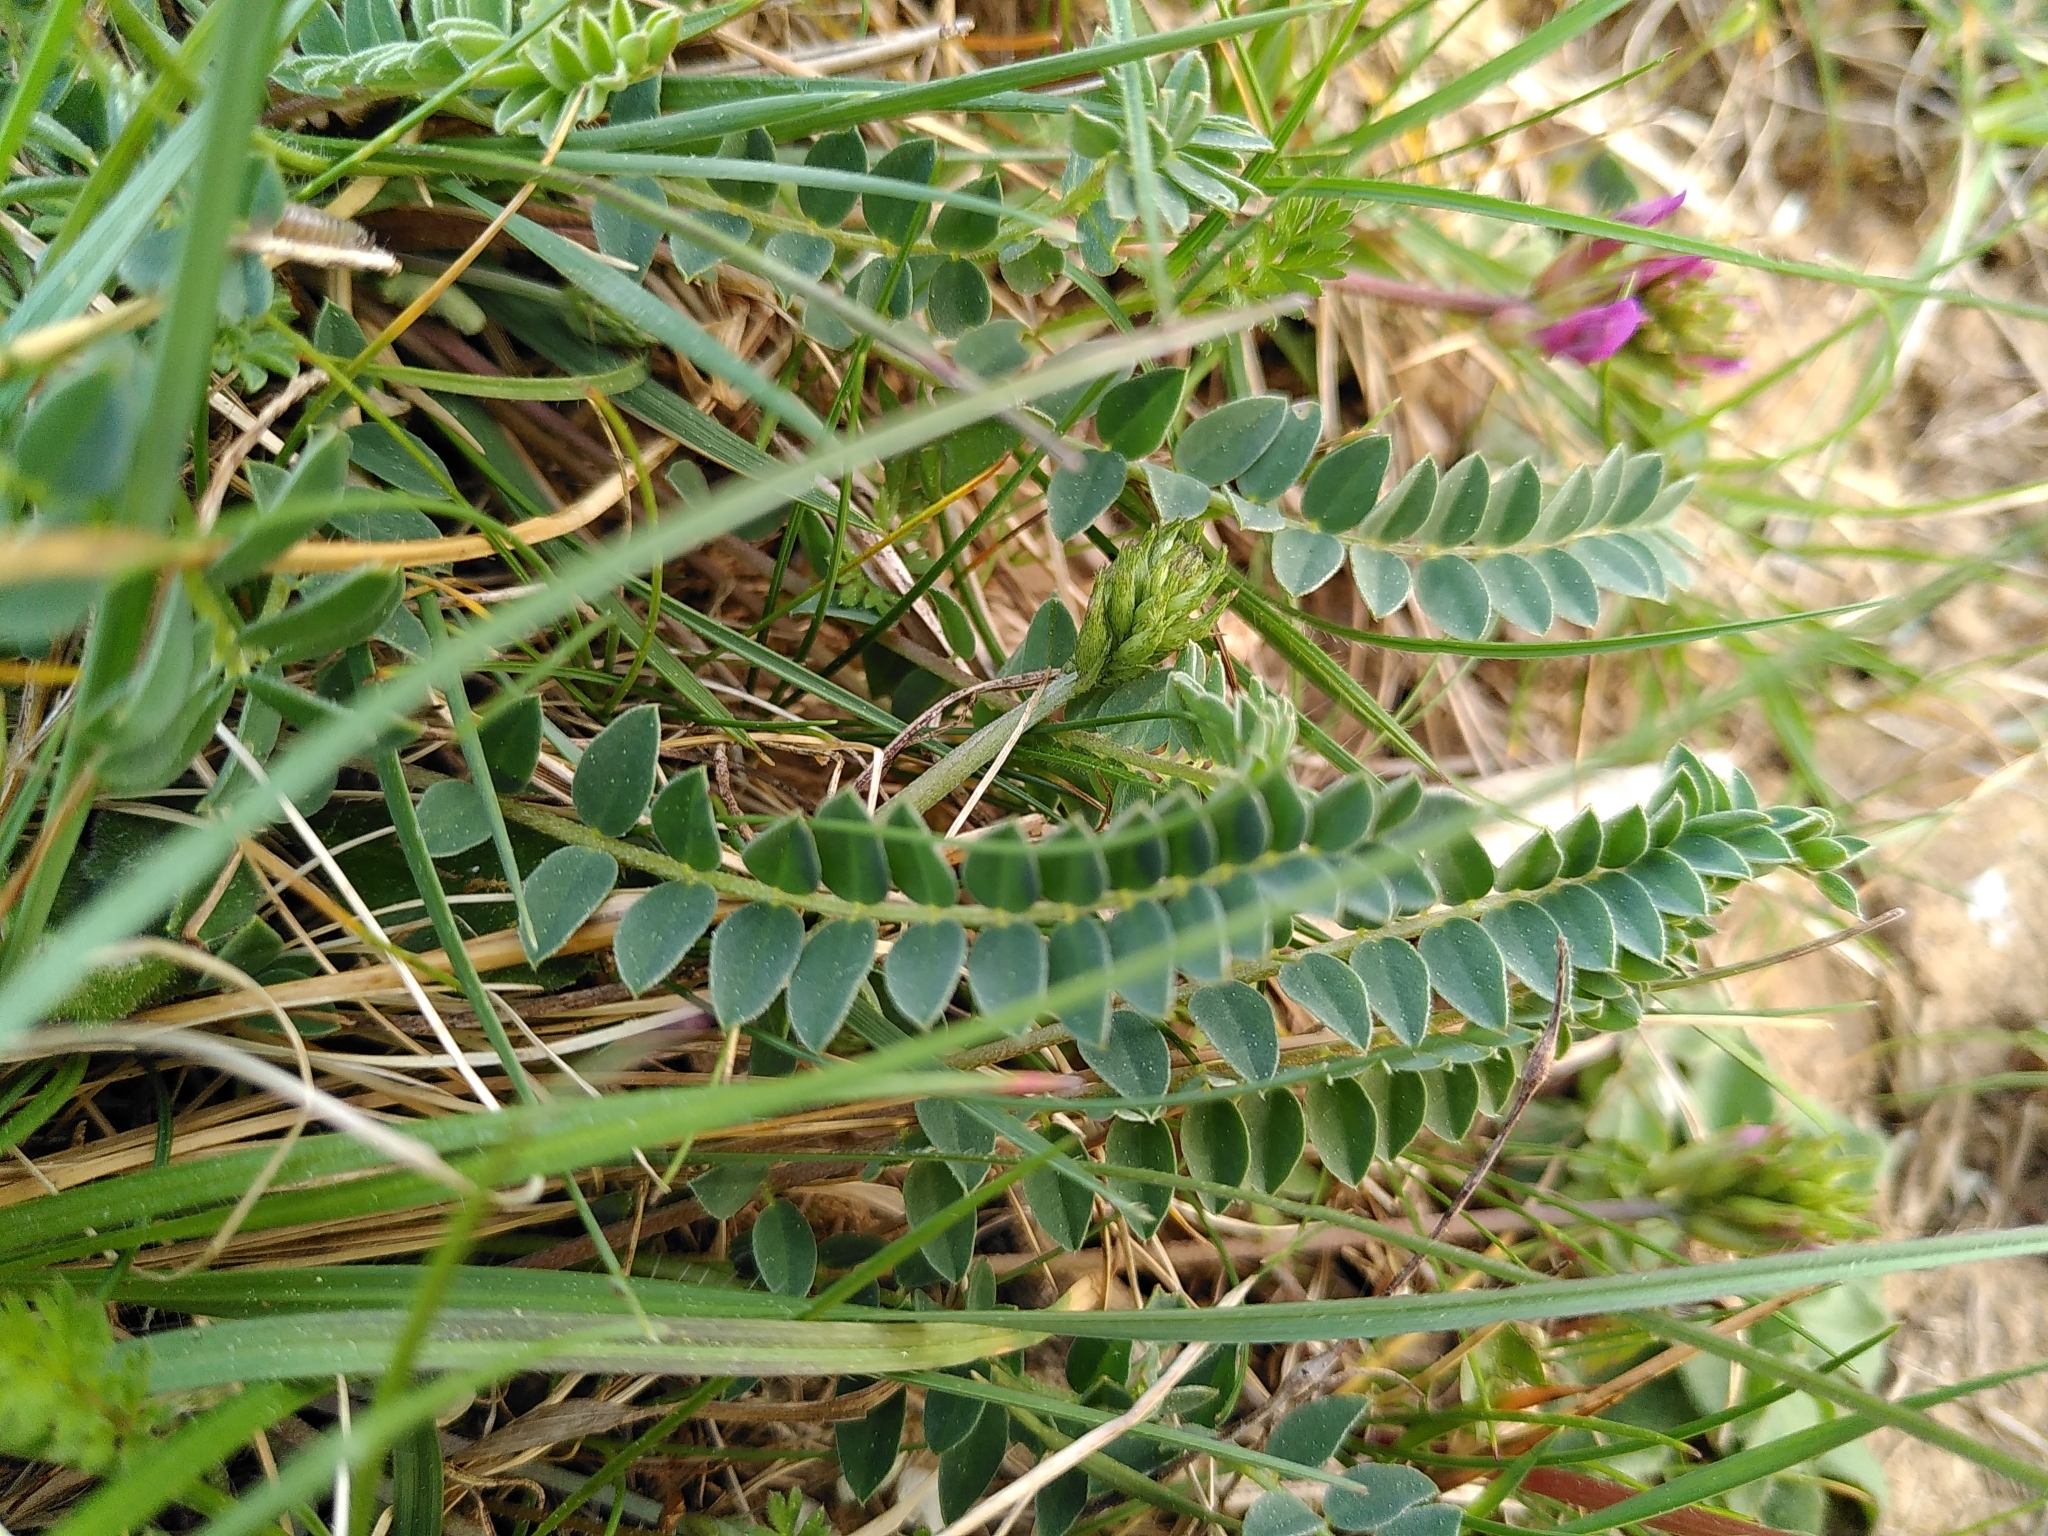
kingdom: Plantae
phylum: Tracheophyta
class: Magnoliopsida
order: Fabales
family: Fabaceae
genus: Astragalus
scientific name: Astragalus monspessulanus
